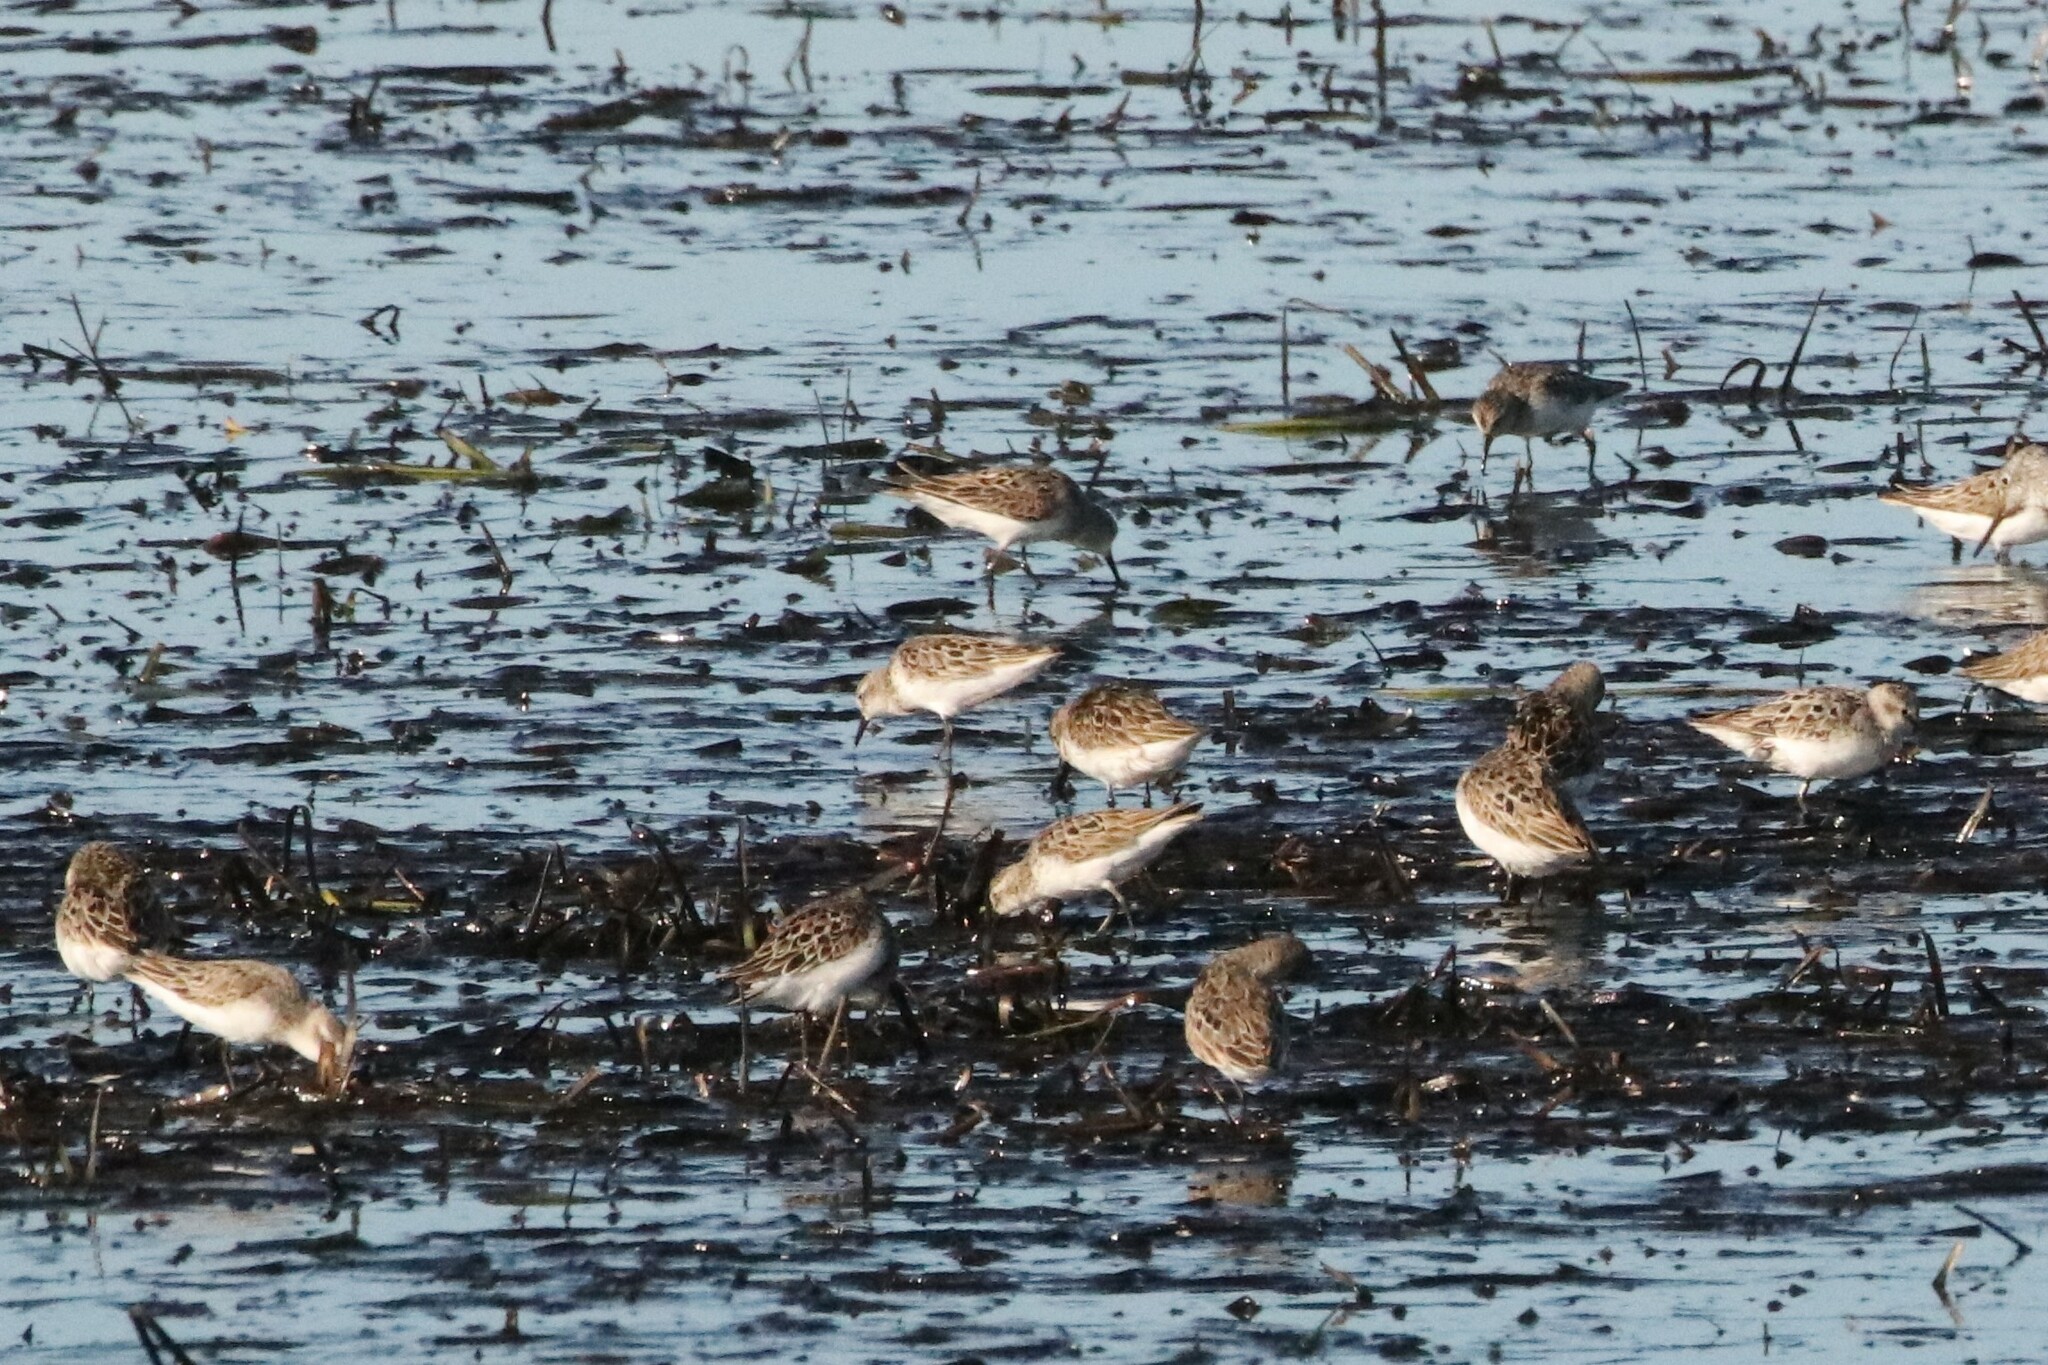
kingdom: Animalia
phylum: Chordata
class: Aves
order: Charadriiformes
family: Scolopacidae
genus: Calidris
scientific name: Calidris pusilla
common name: Semipalmated sandpiper
